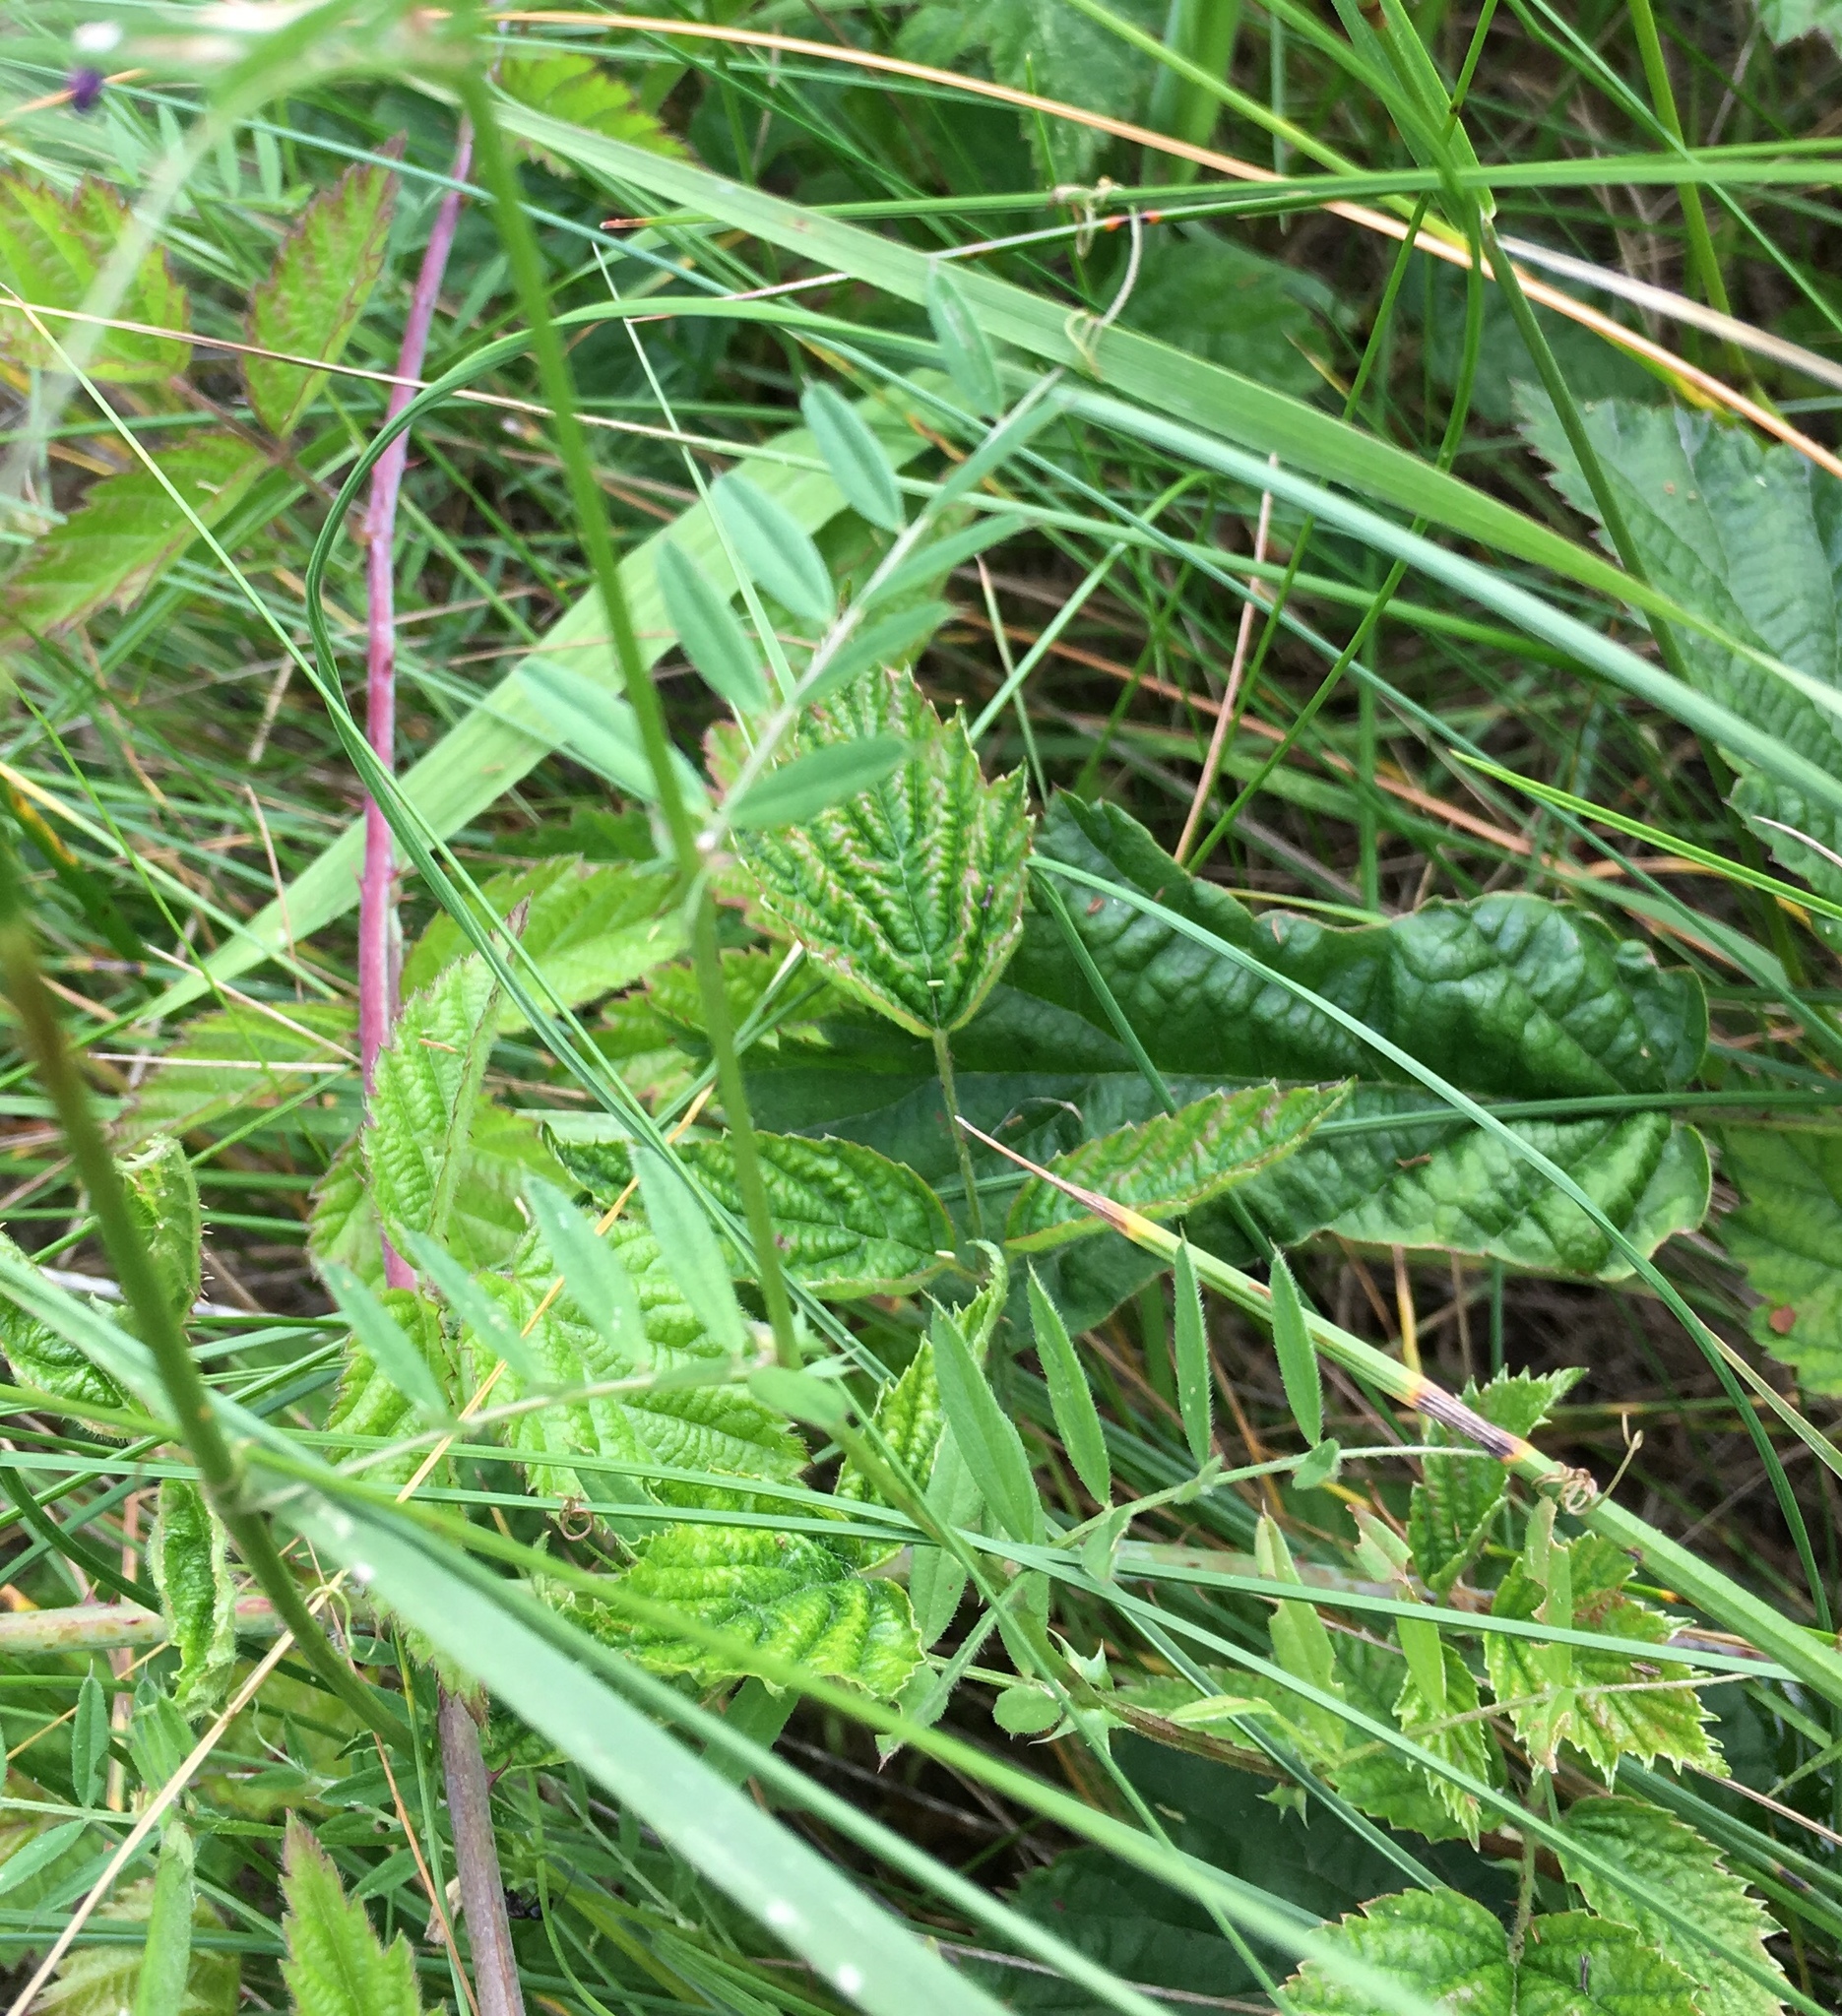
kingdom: Plantae
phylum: Tracheophyta
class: Magnoliopsida
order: Fabales
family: Fabaceae
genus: Vicia
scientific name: Vicia sativa
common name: Garden vetch
